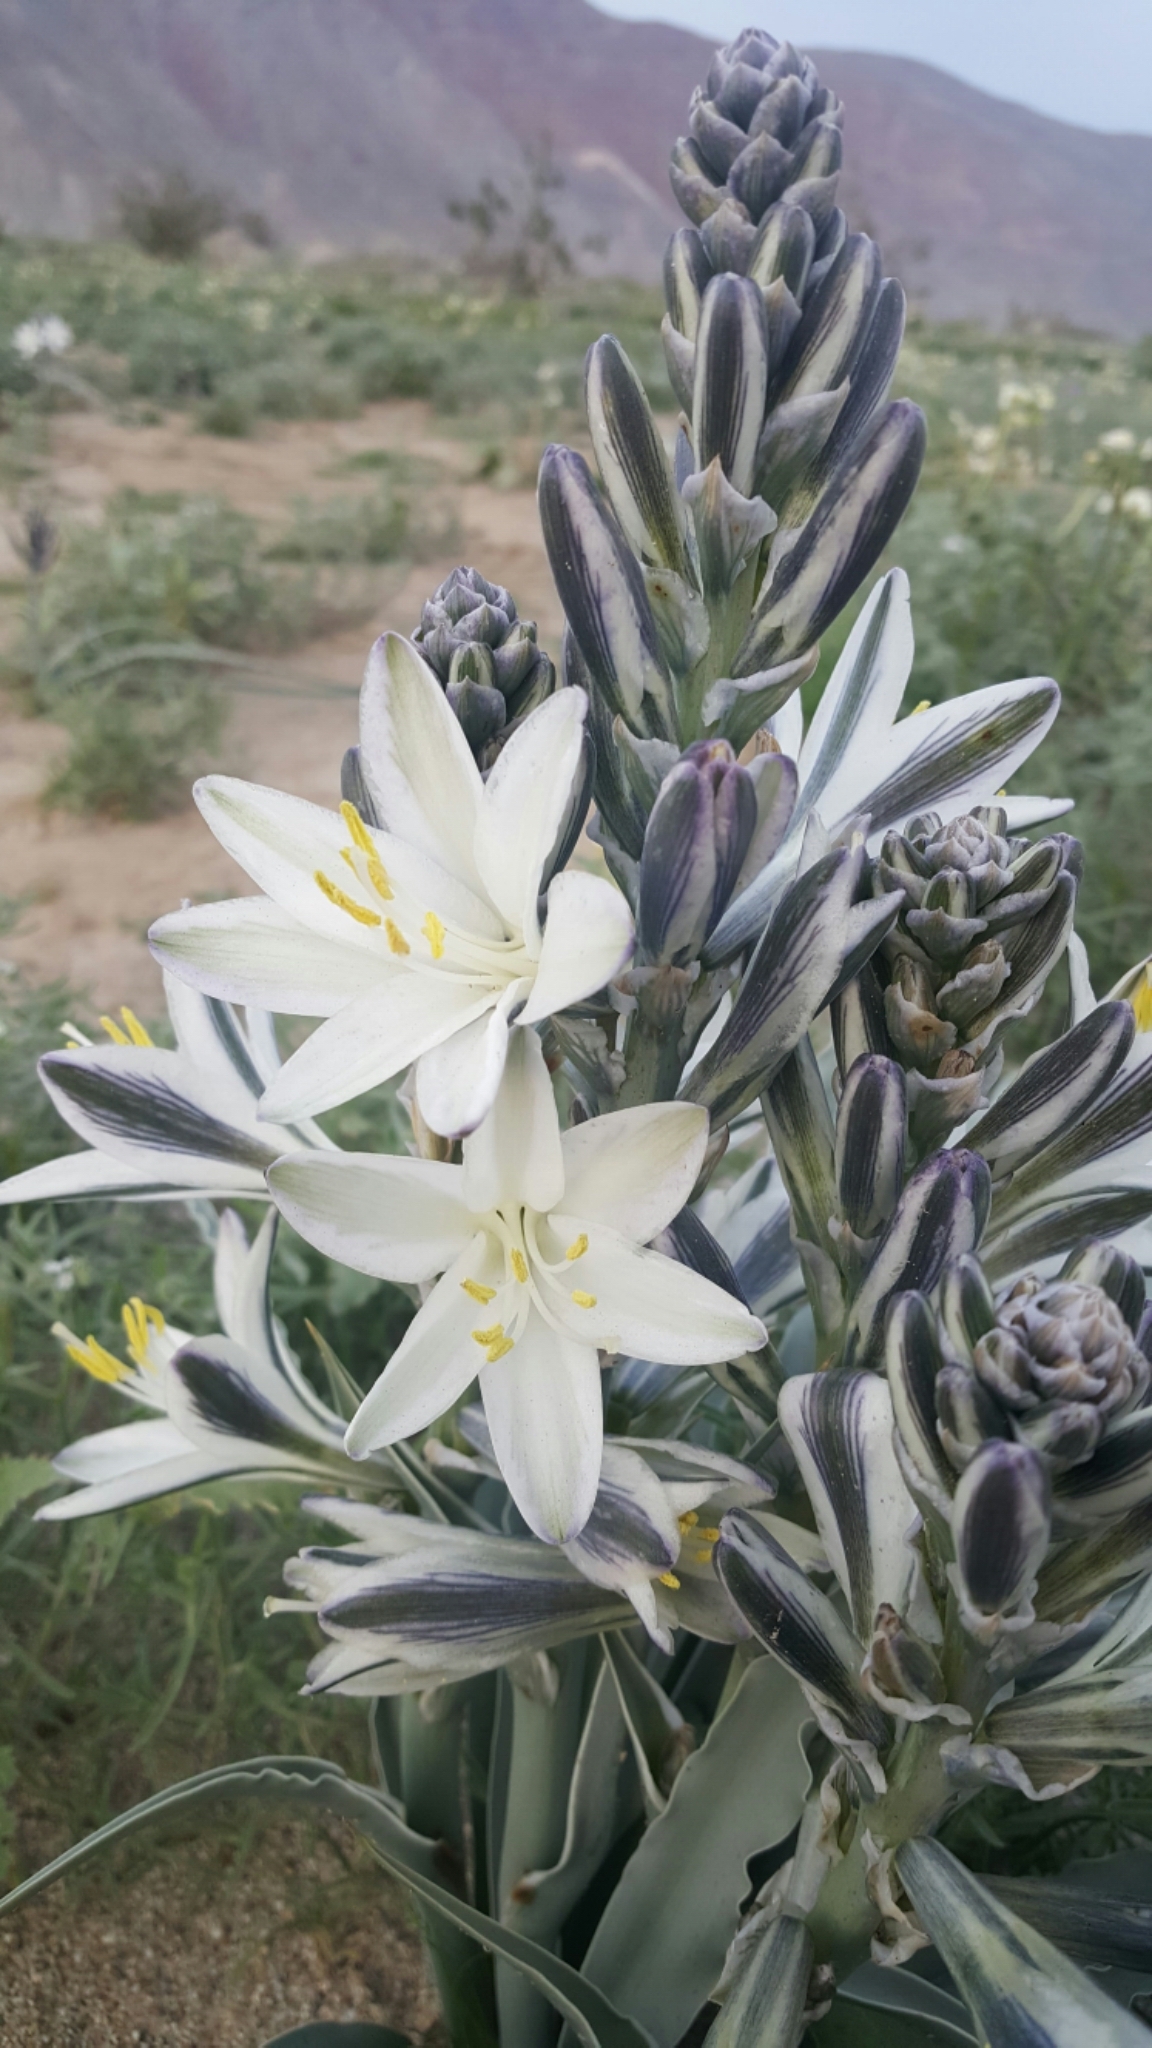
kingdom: Plantae
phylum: Tracheophyta
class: Liliopsida
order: Asparagales
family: Asparagaceae
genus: Hesperocallis
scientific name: Hesperocallis undulata
